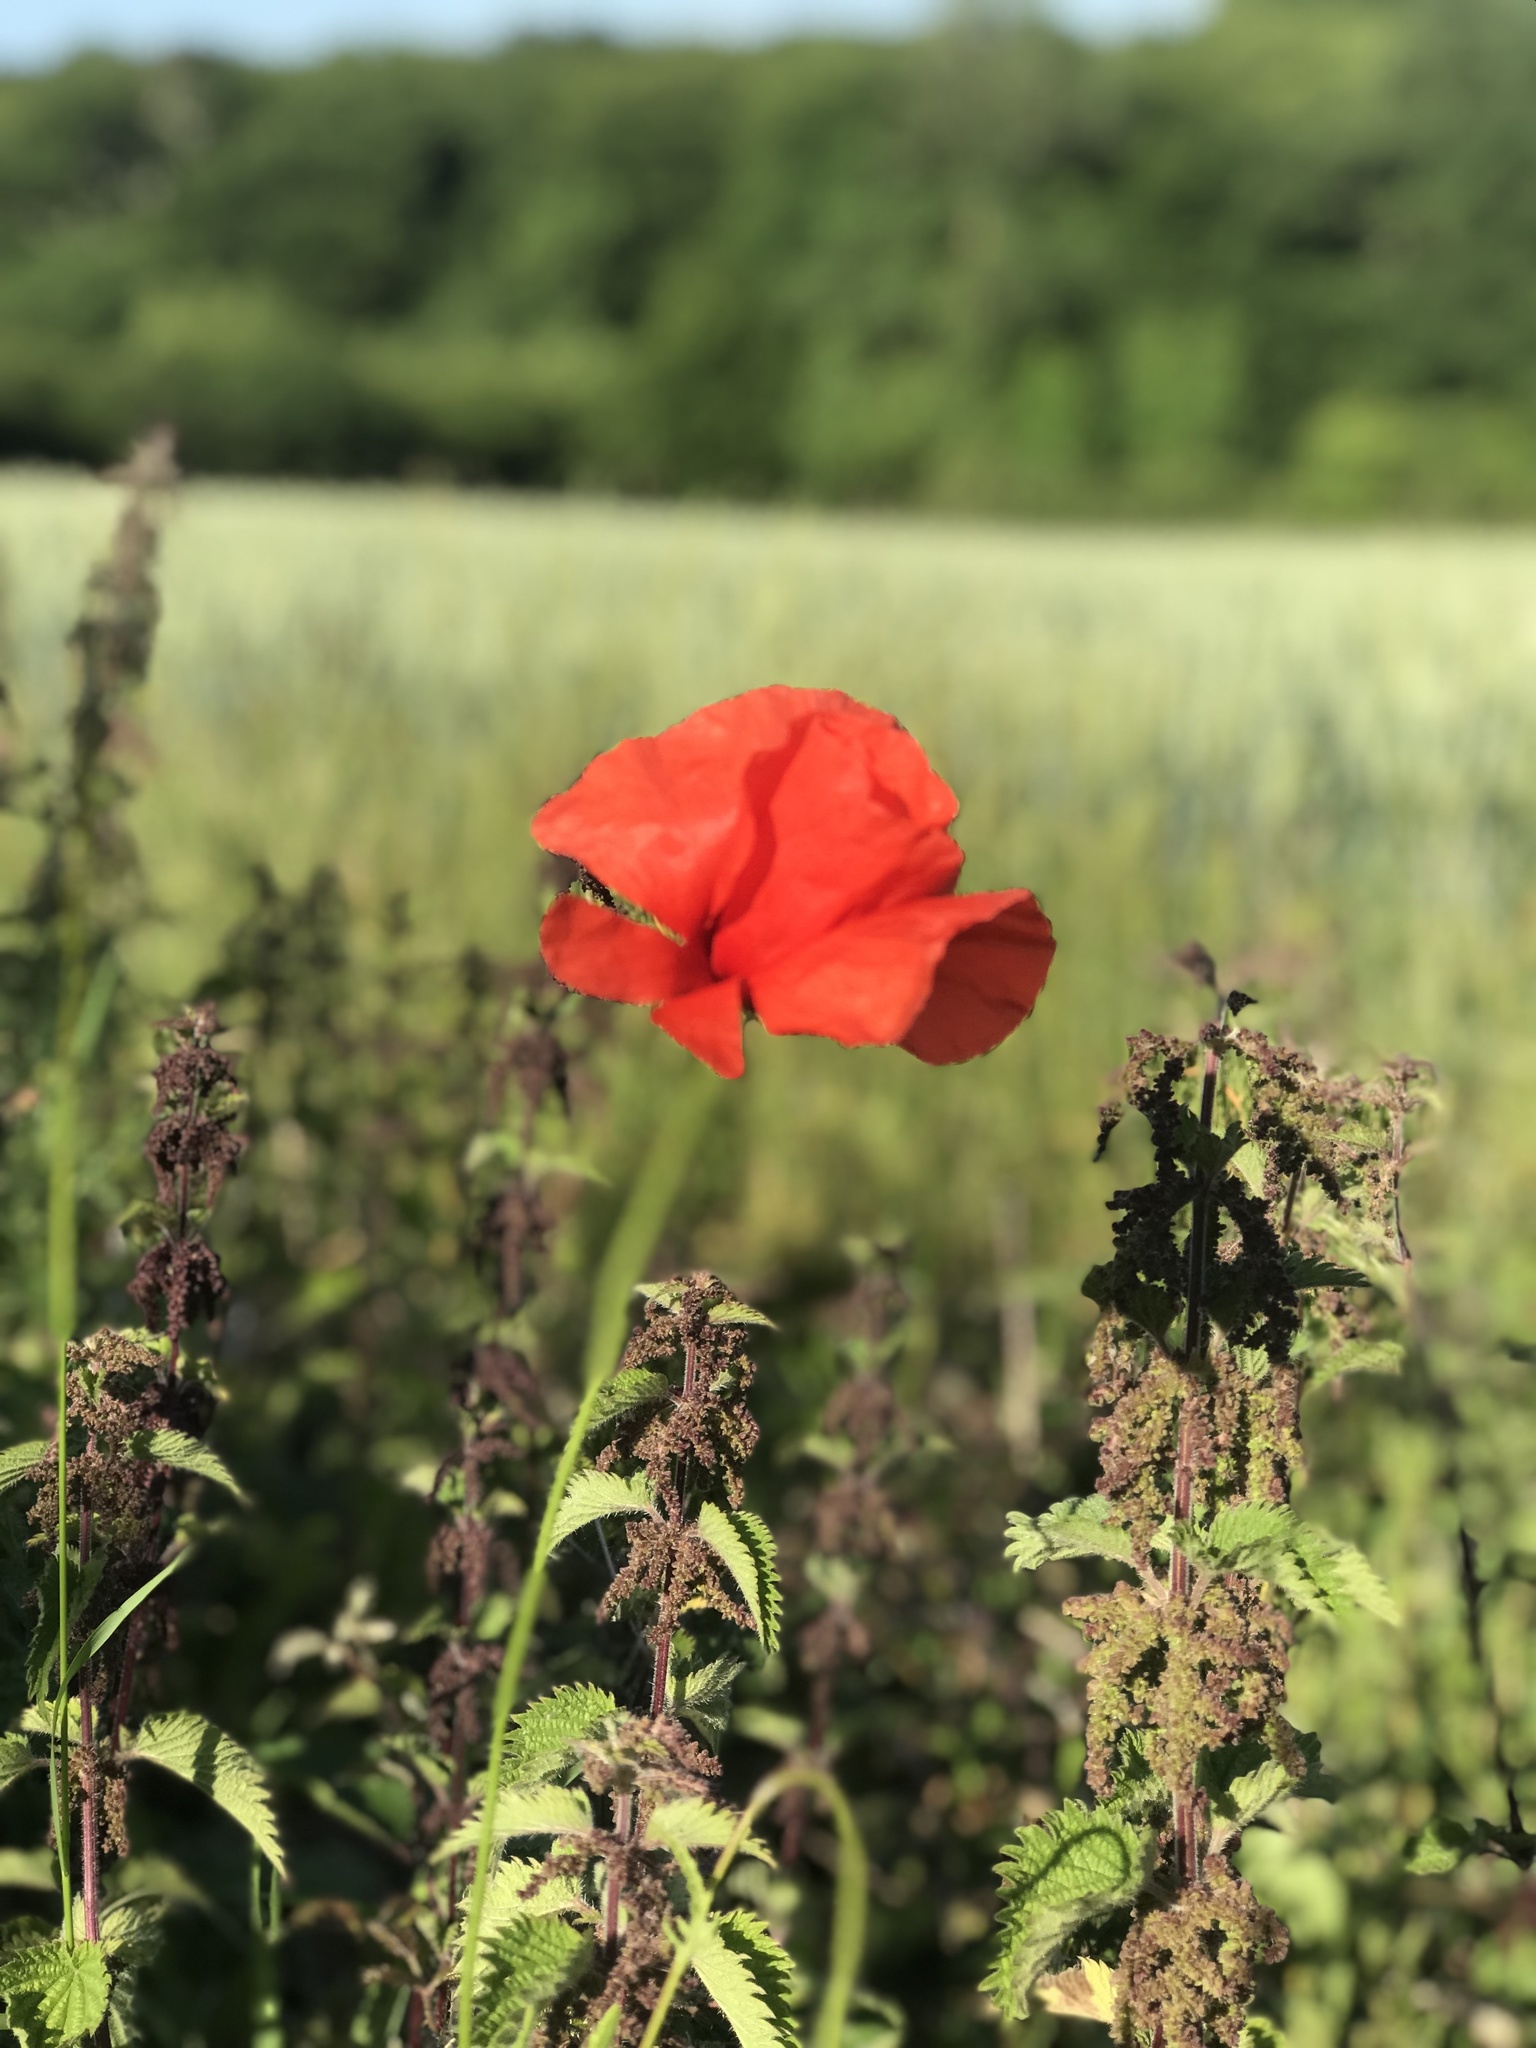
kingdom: Plantae
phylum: Tracheophyta
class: Magnoliopsida
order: Ranunculales
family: Papaveraceae
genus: Papaver
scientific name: Papaver rhoeas
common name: Corn poppy
